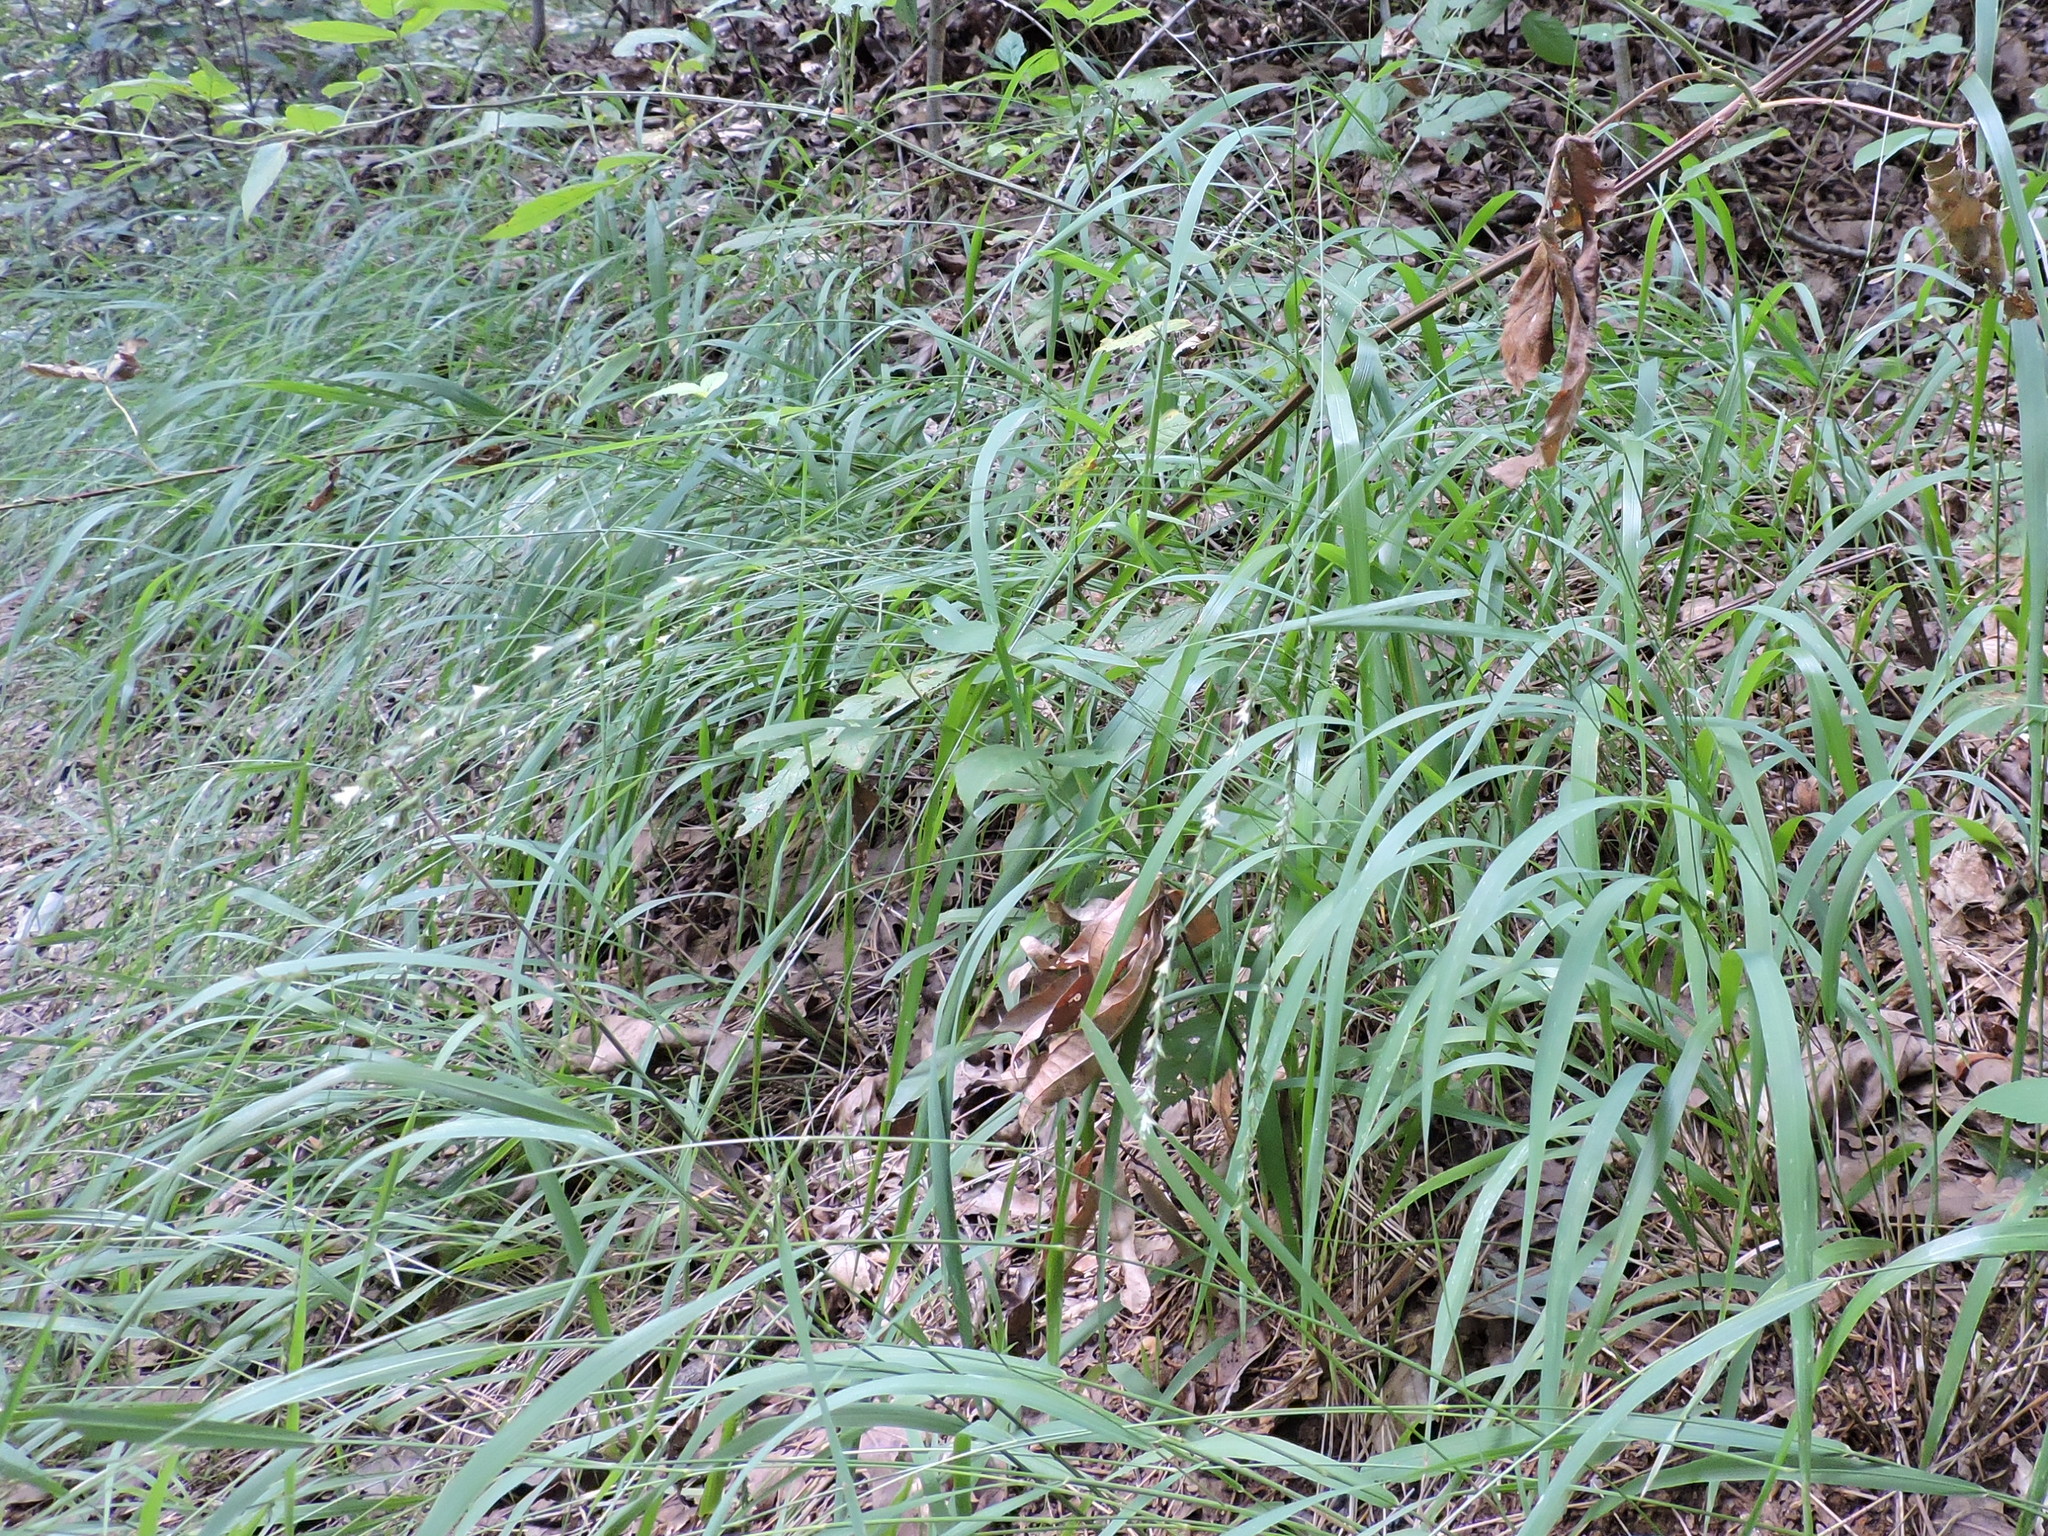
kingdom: Plantae
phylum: Tracheophyta
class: Liliopsida
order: Poales
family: Poaceae
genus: Chasmanthium
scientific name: Chasmanthium laxum
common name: Slender chasmanthium
